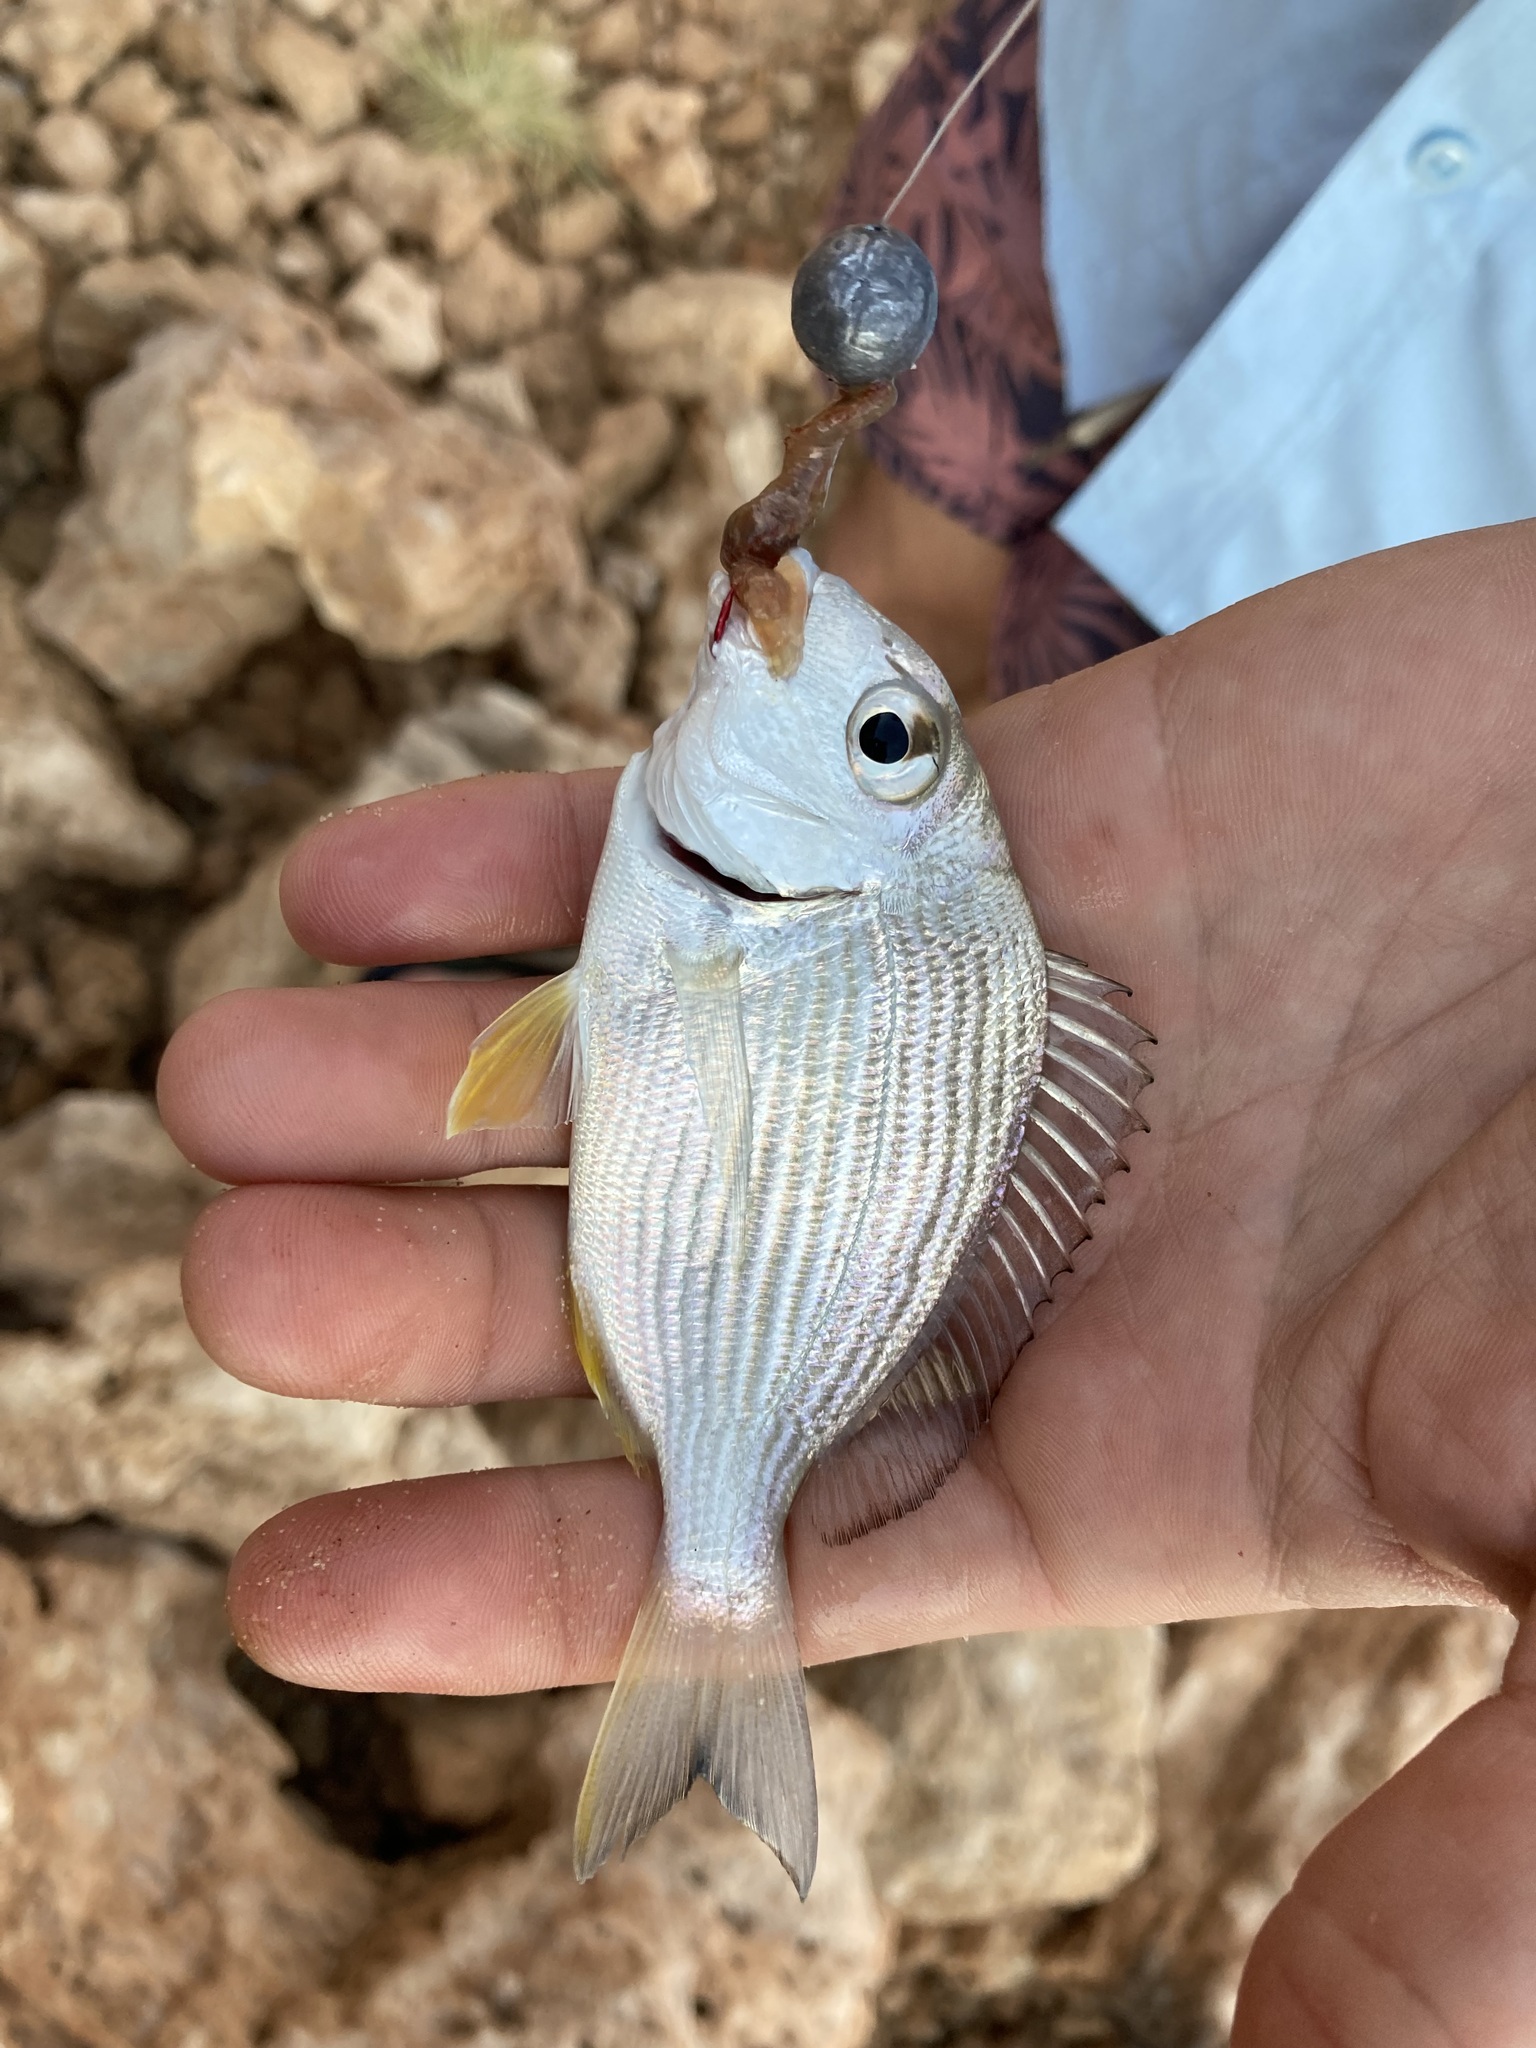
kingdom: Animalia
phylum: Chordata
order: Perciformes
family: Sparidae
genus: Rhabdosargus
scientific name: Rhabdosargus sarba
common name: Goldlined seabream
